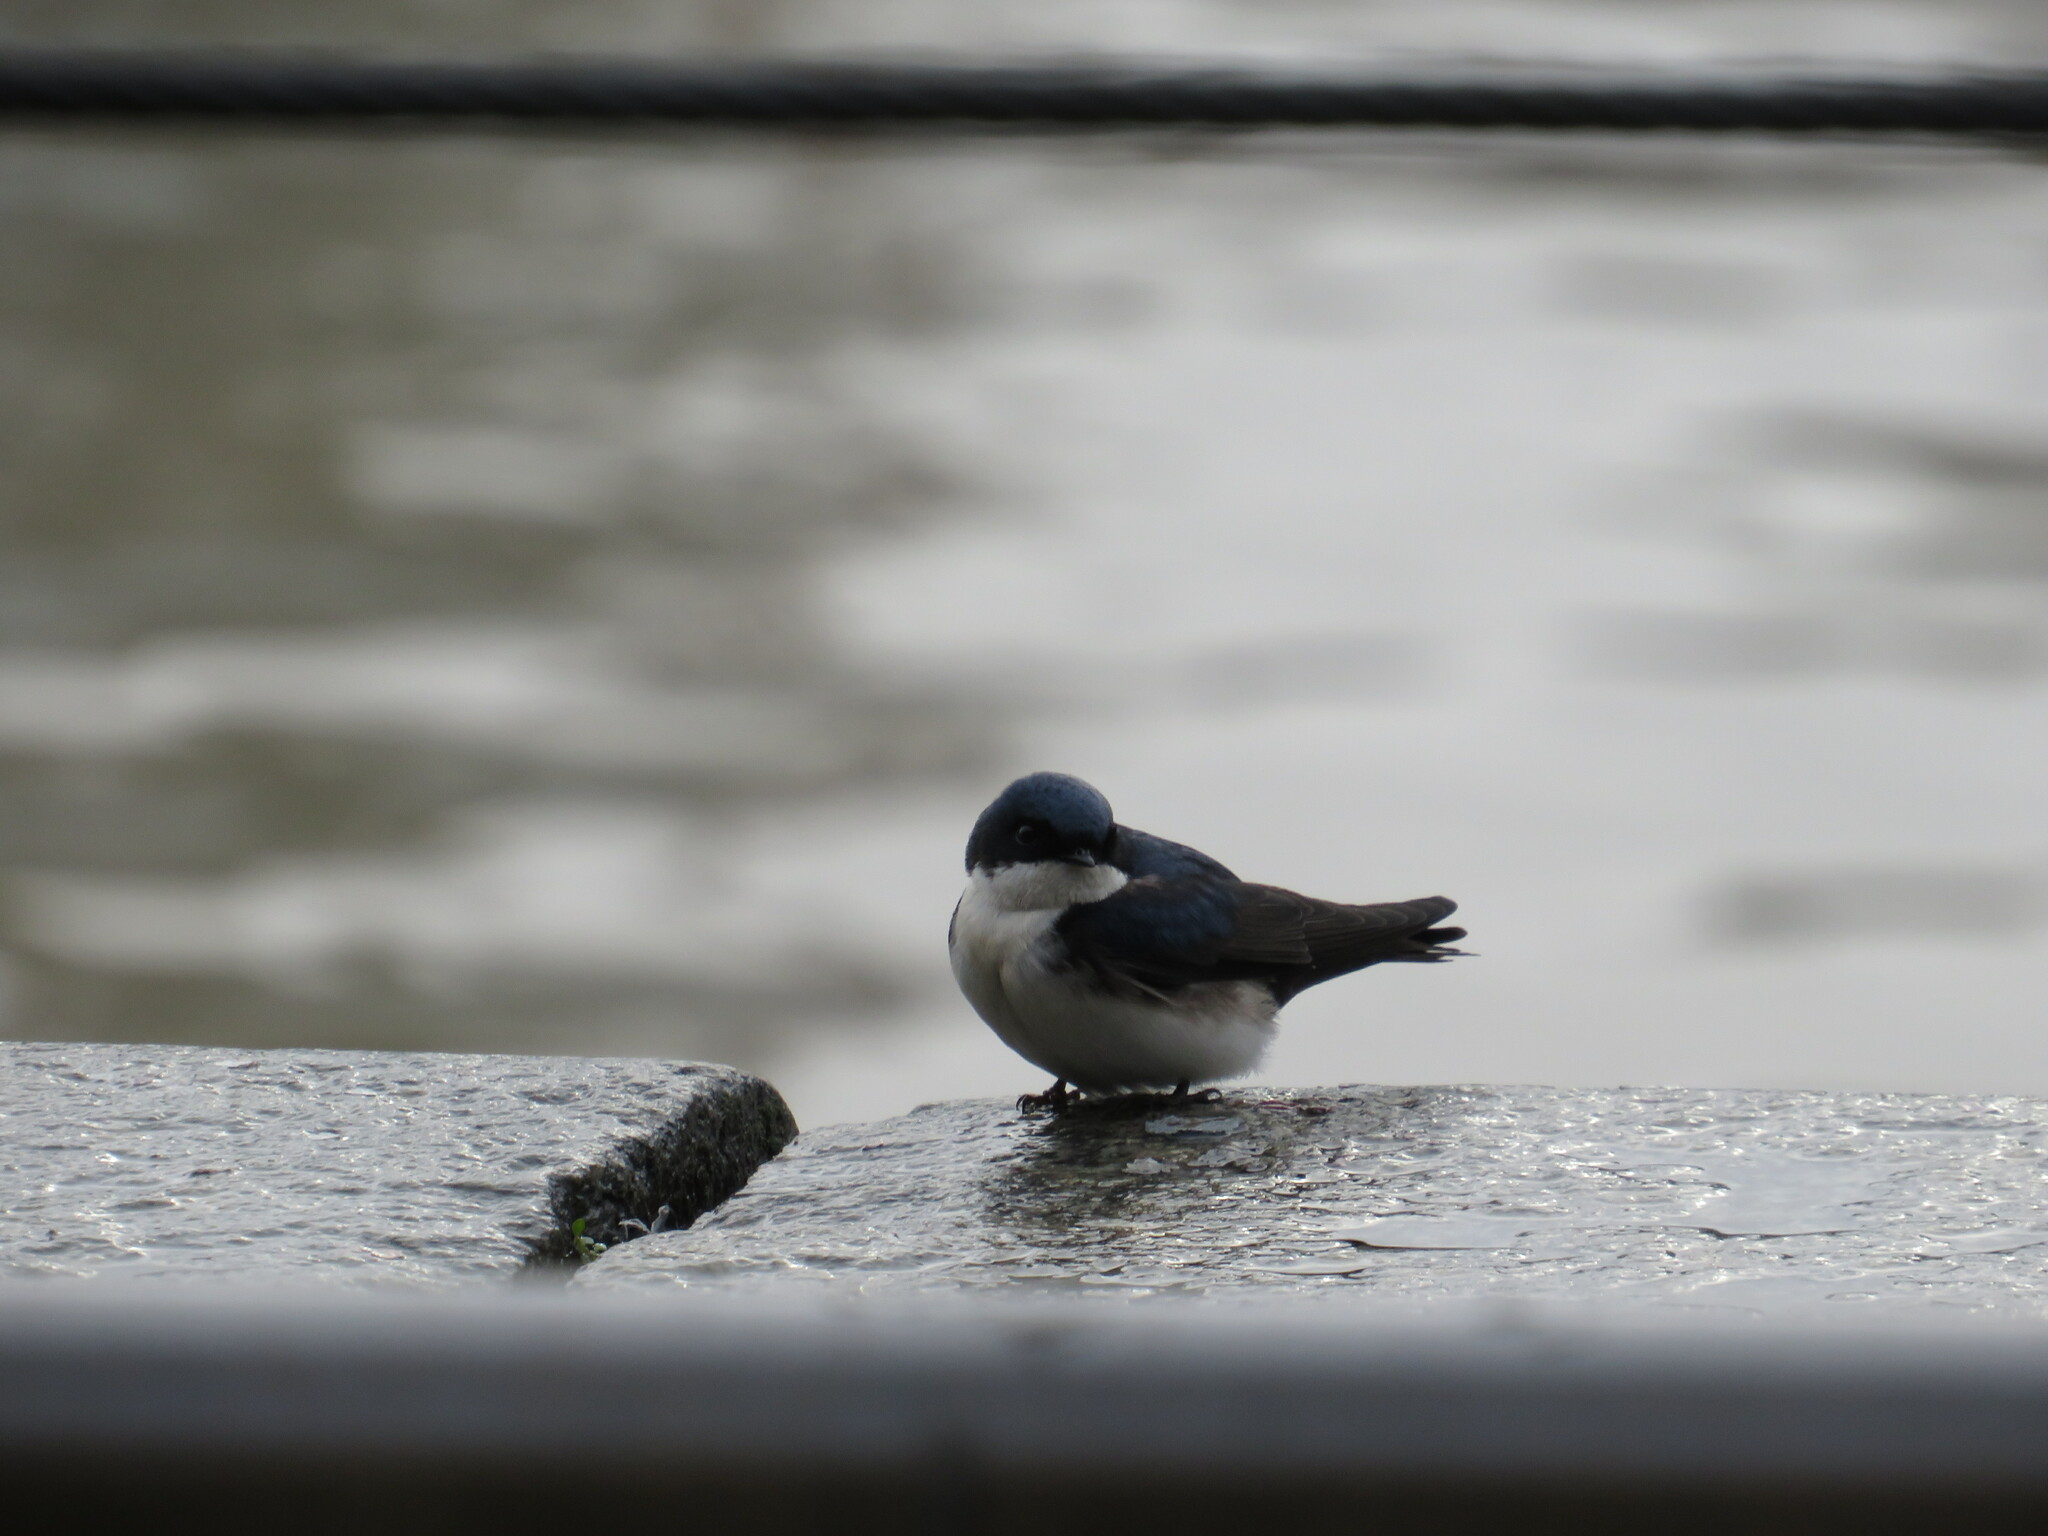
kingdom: Animalia
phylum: Chordata
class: Aves
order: Passeriformes
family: Hirundinidae
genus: Notiochelidon
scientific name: Notiochelidon cyanoleuca
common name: Blue-and-white swallow
